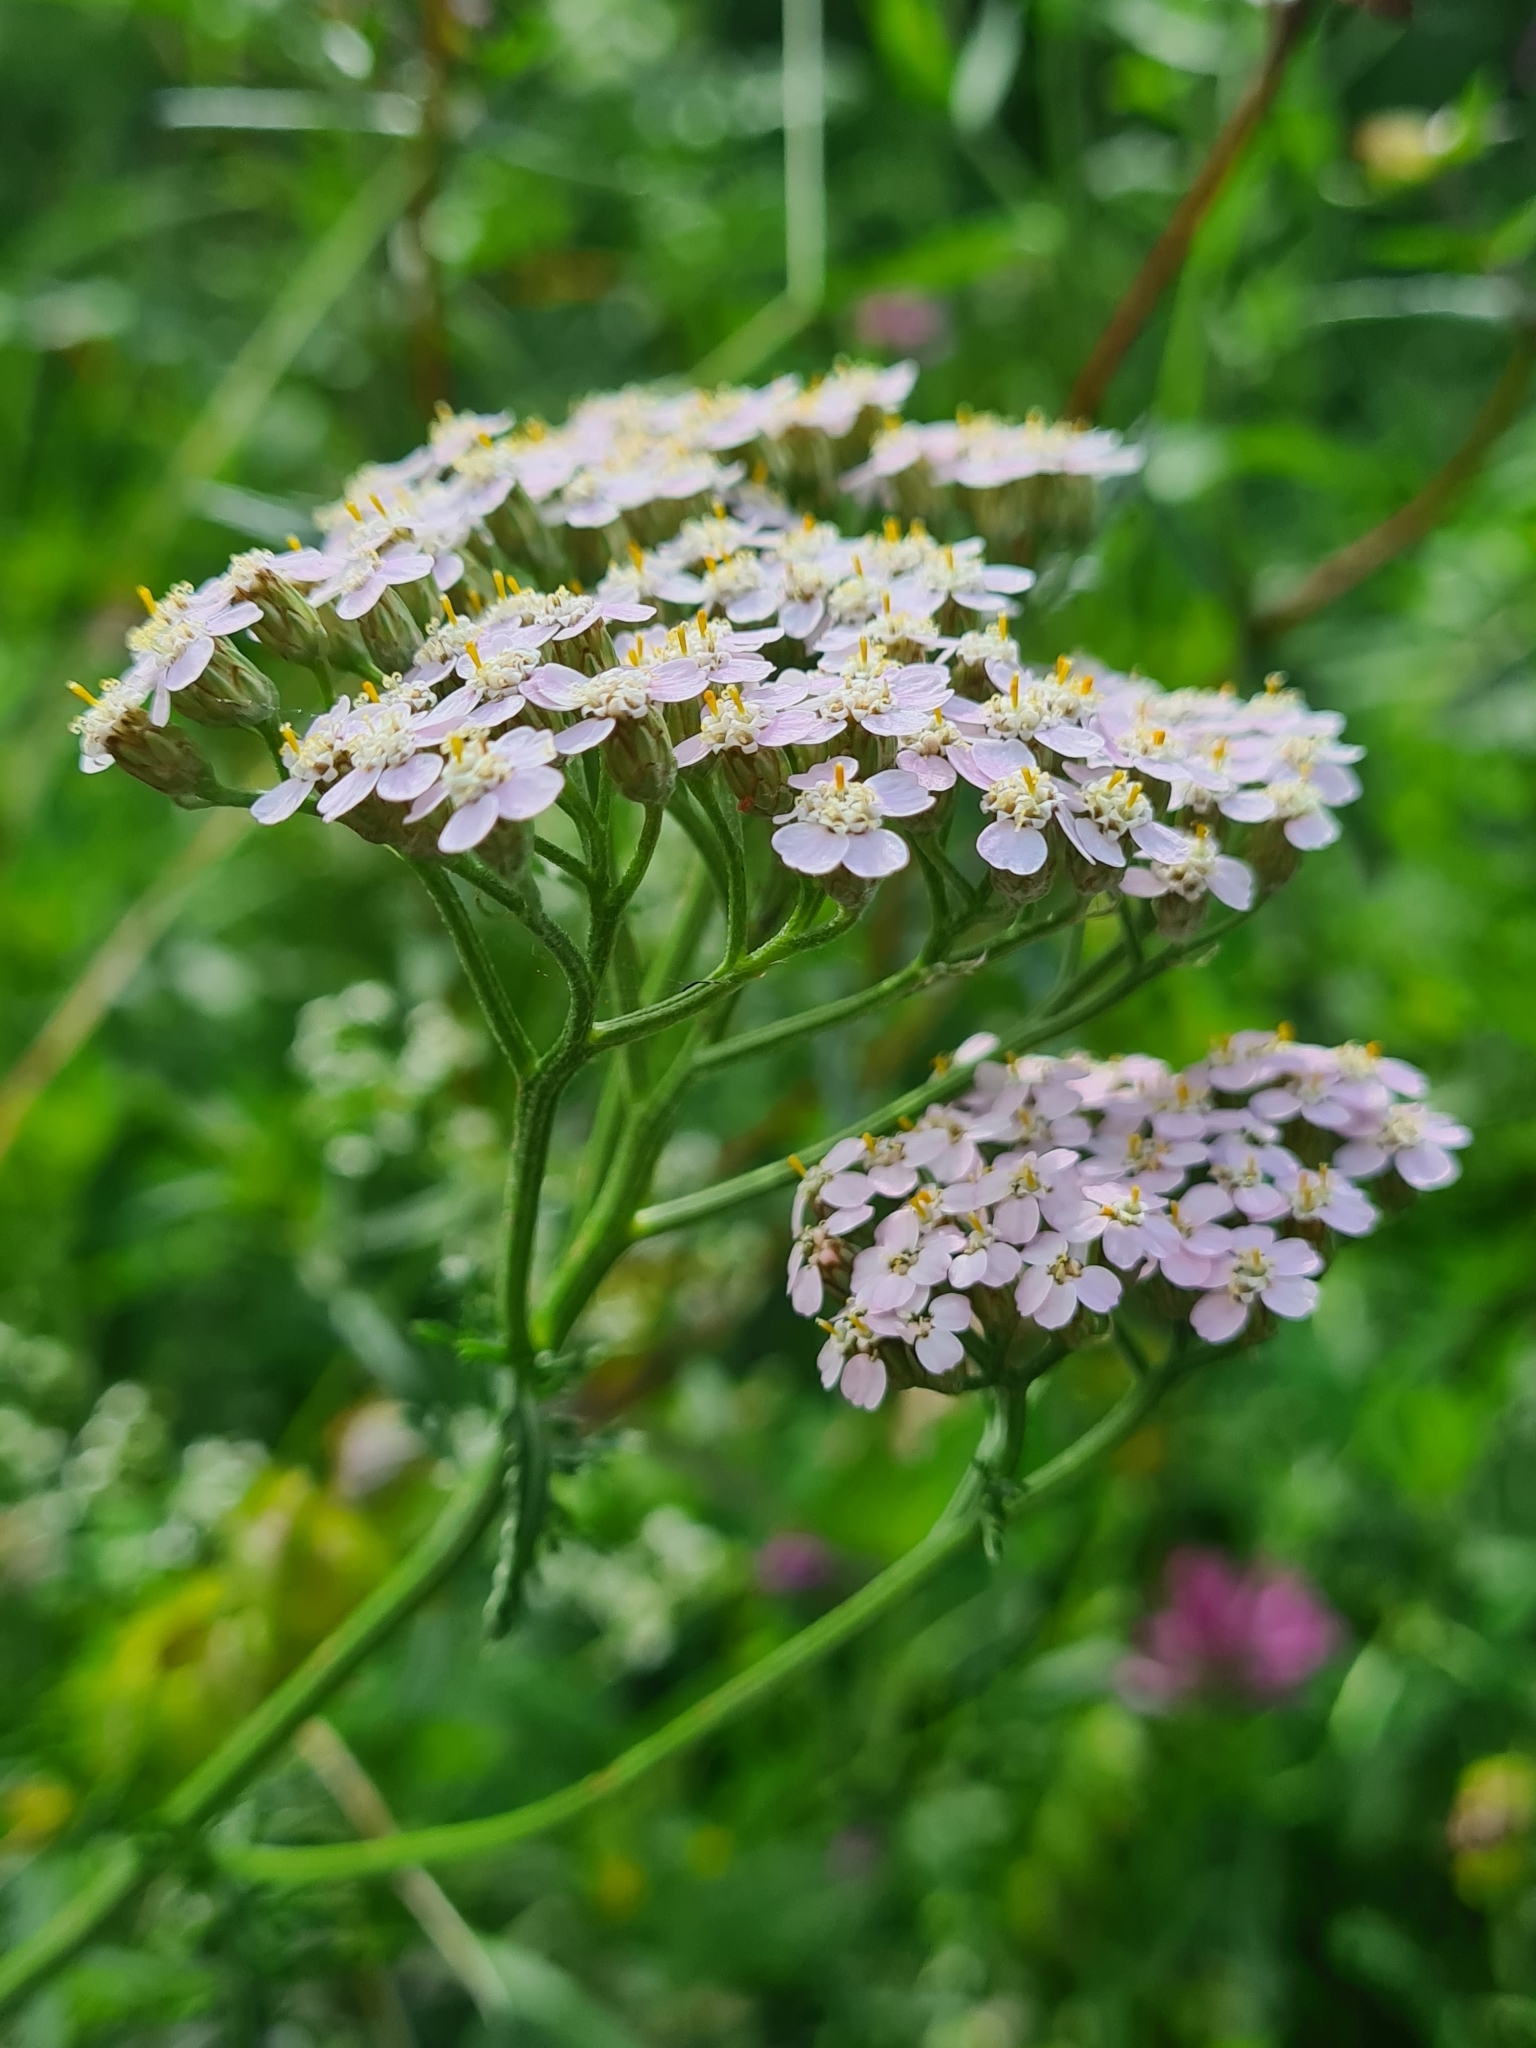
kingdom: Plantae
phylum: Tracheophyta
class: Magnoliopsida
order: Asterales
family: Asteraceae
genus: Achillea
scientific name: Achillea millefolium
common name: Yarrow
